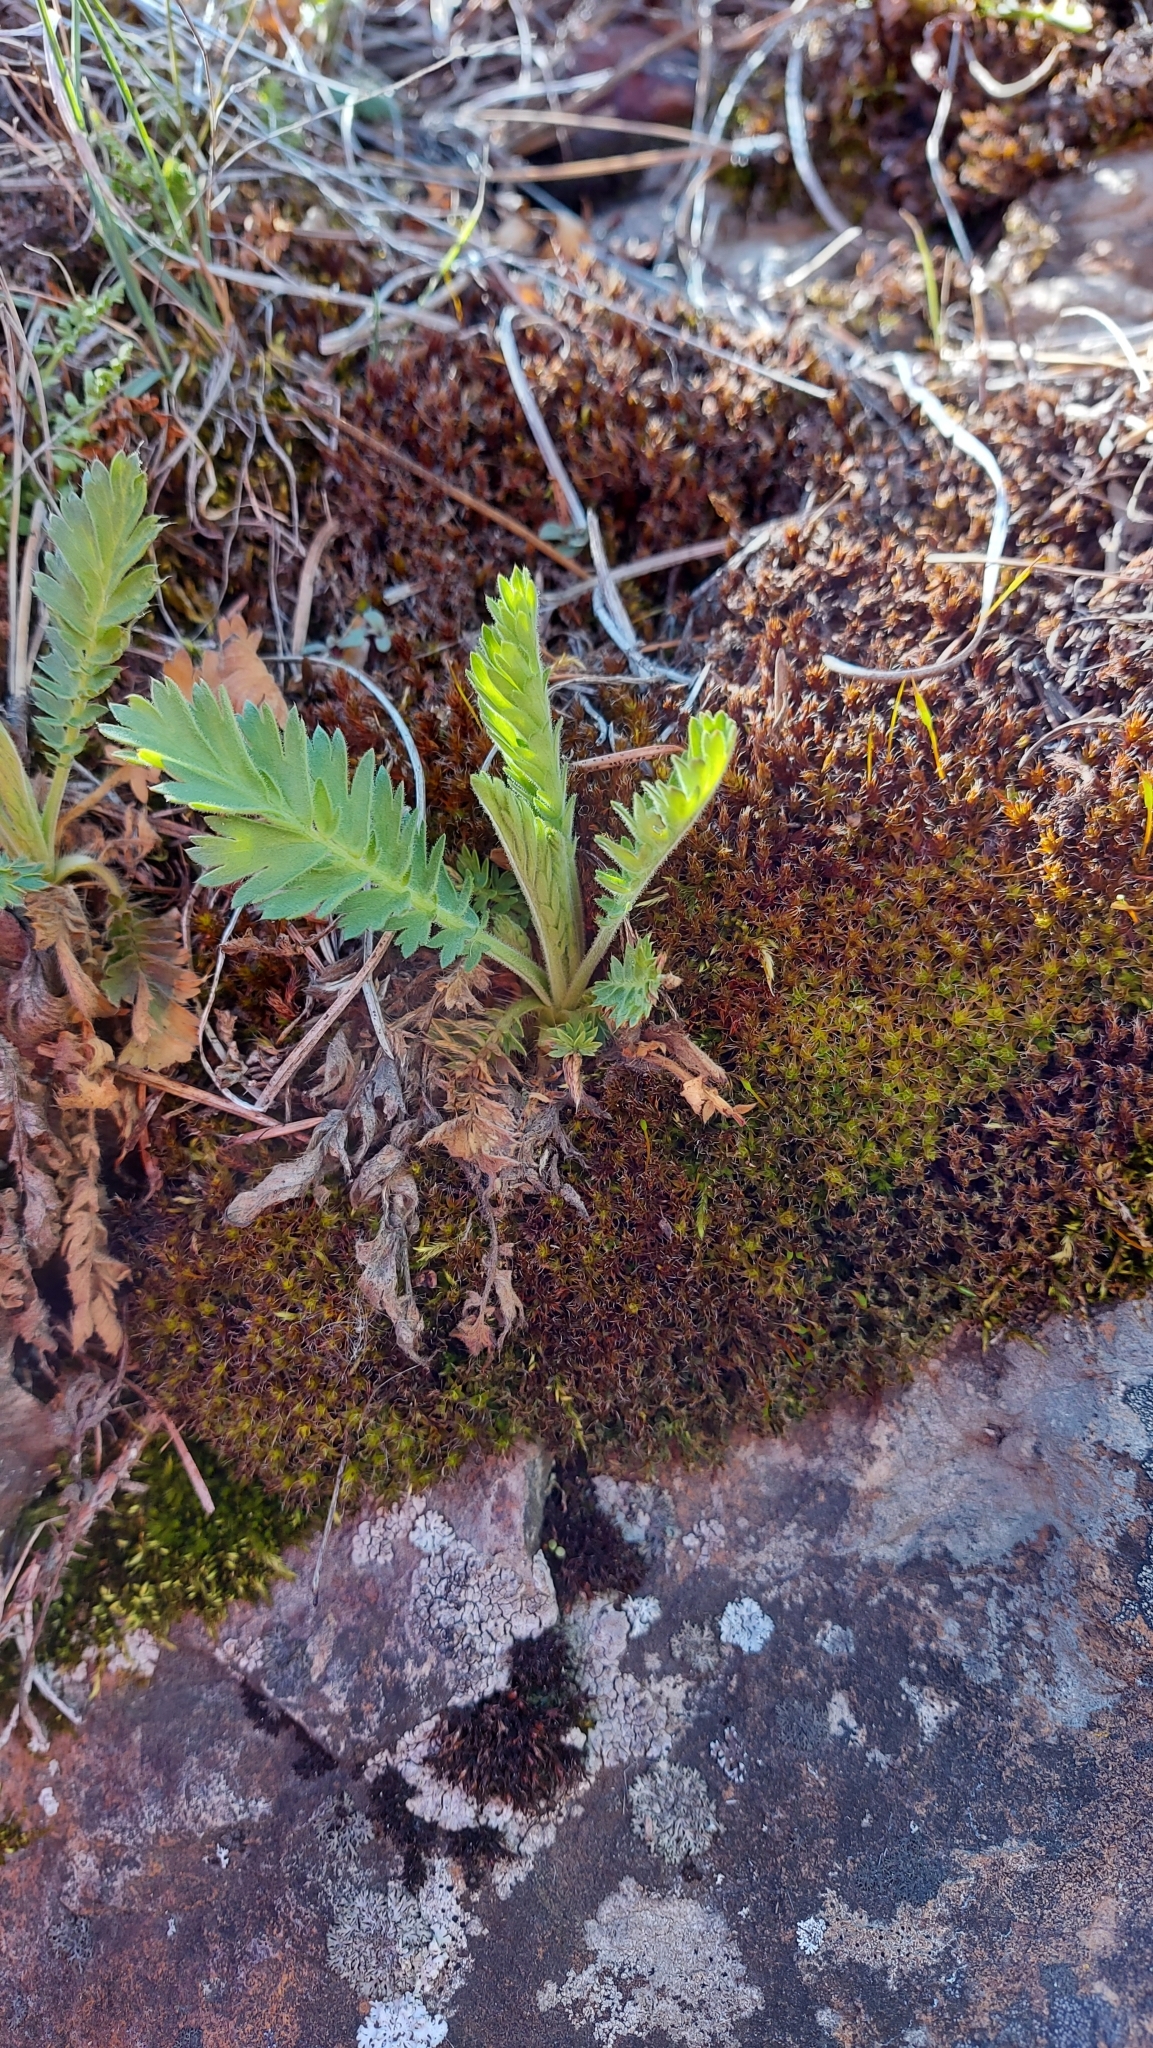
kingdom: Plantae
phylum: Tracheophyta
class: Magnoliopsida
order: Rosales
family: Rosaceae
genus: Geum
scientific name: Geum triflorum
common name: Old man's whiskers
